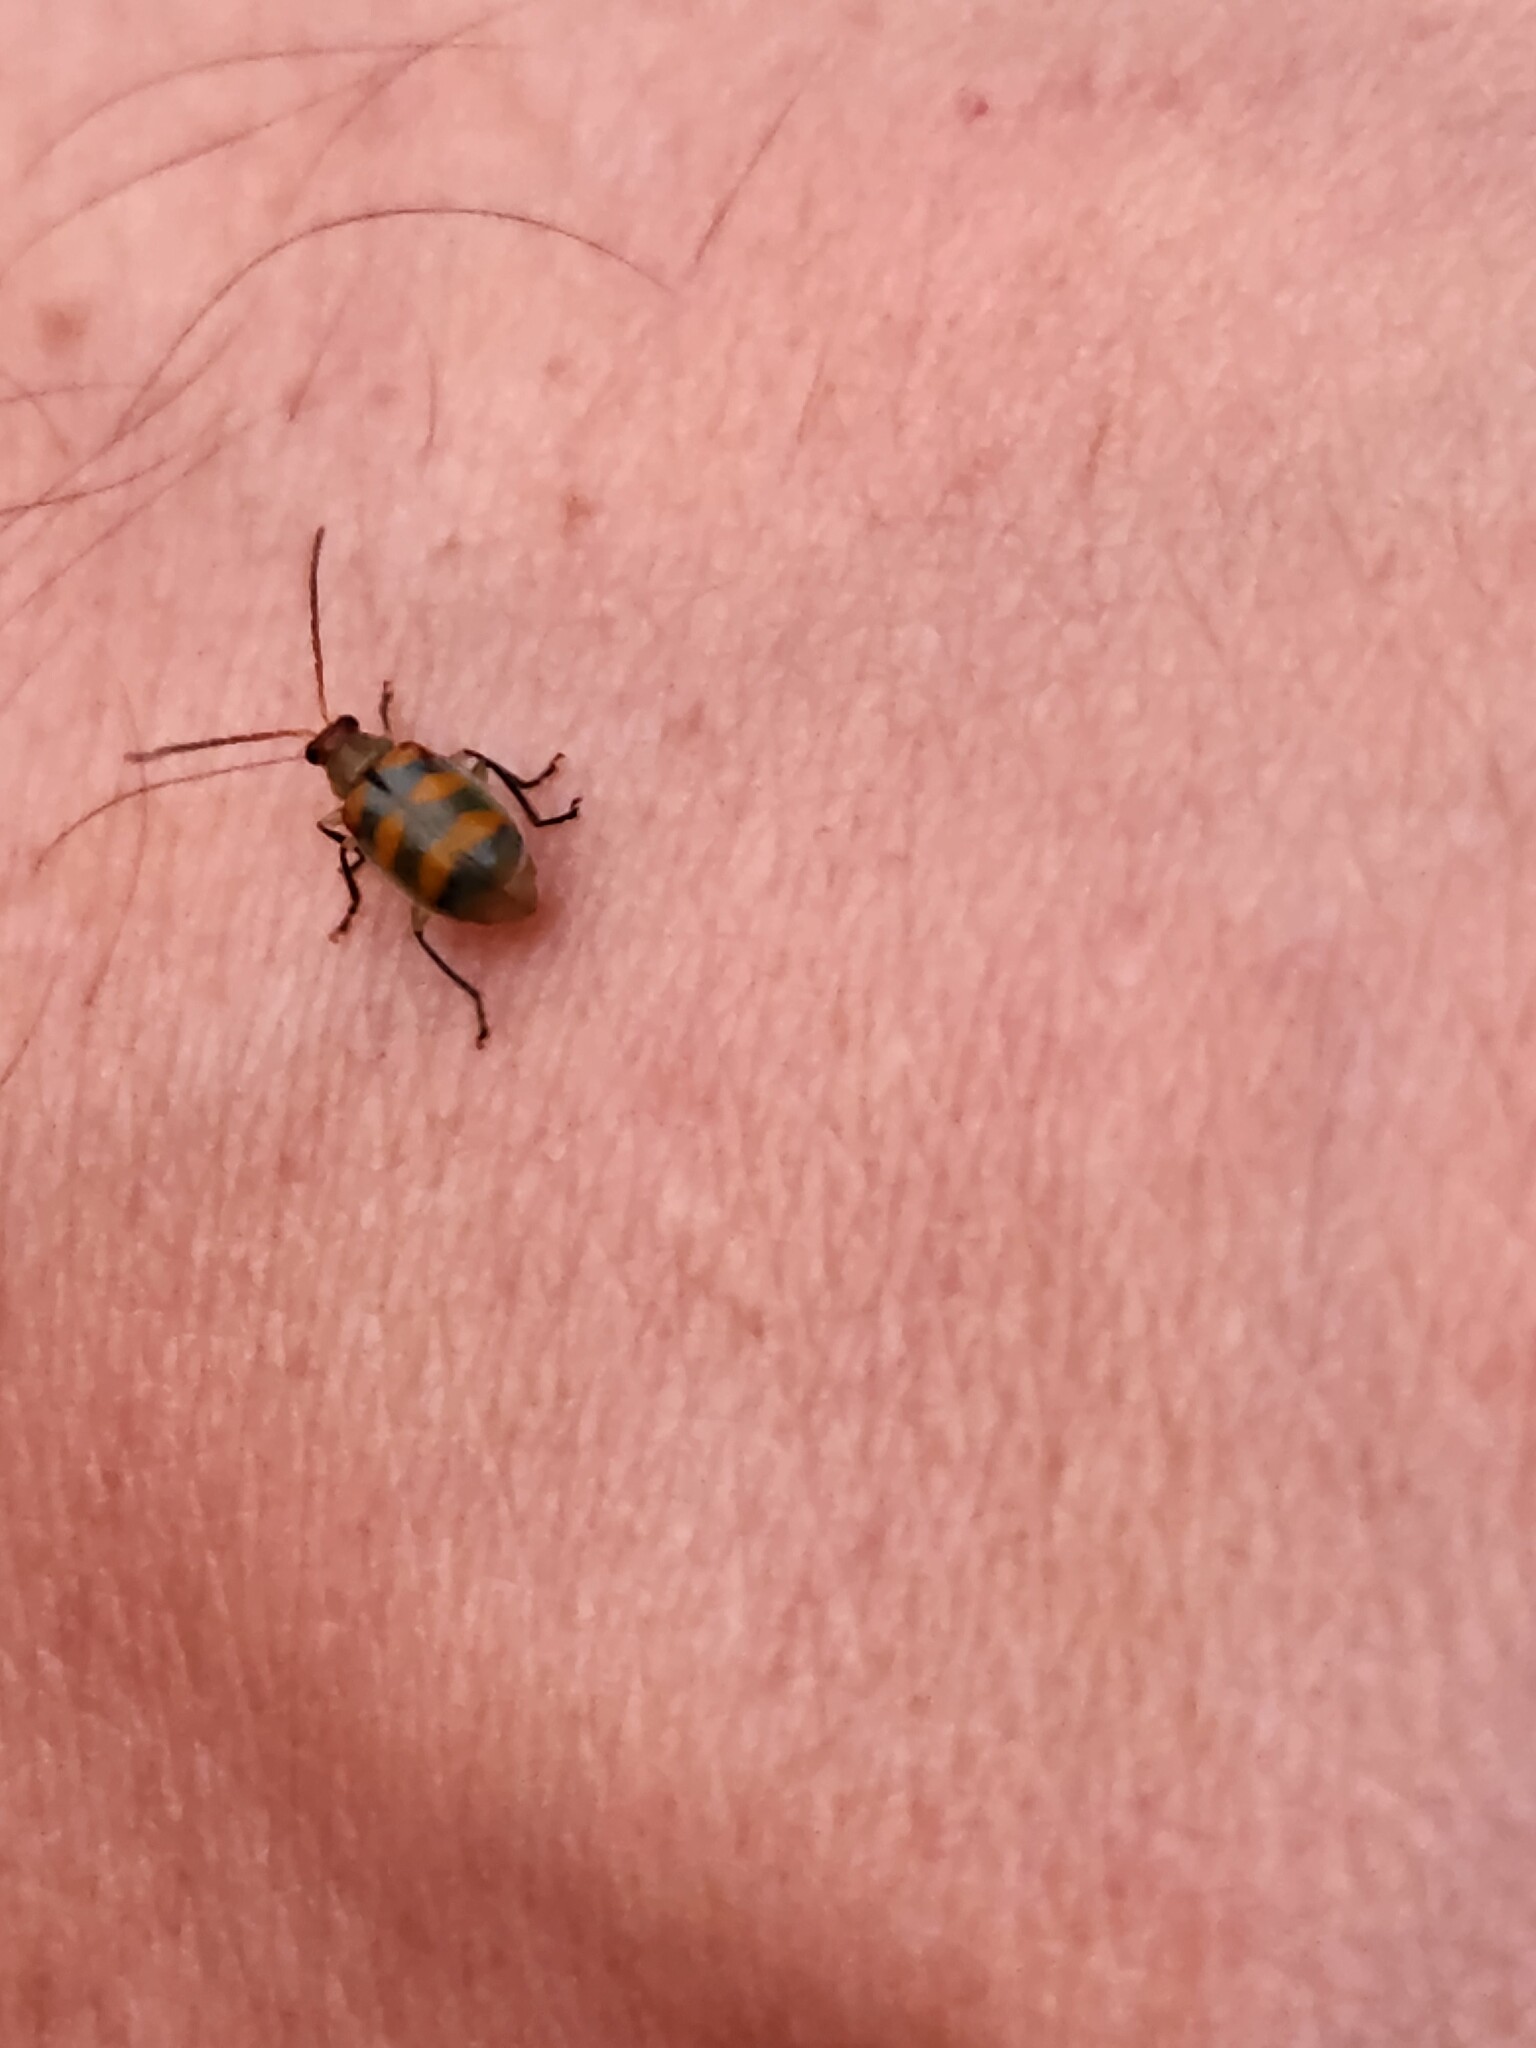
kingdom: Animalia
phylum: Arthropoda
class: Insecta
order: Coleoptera
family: Chrysomelidae
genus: Diabrotica
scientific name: Diabrotica speciosa
